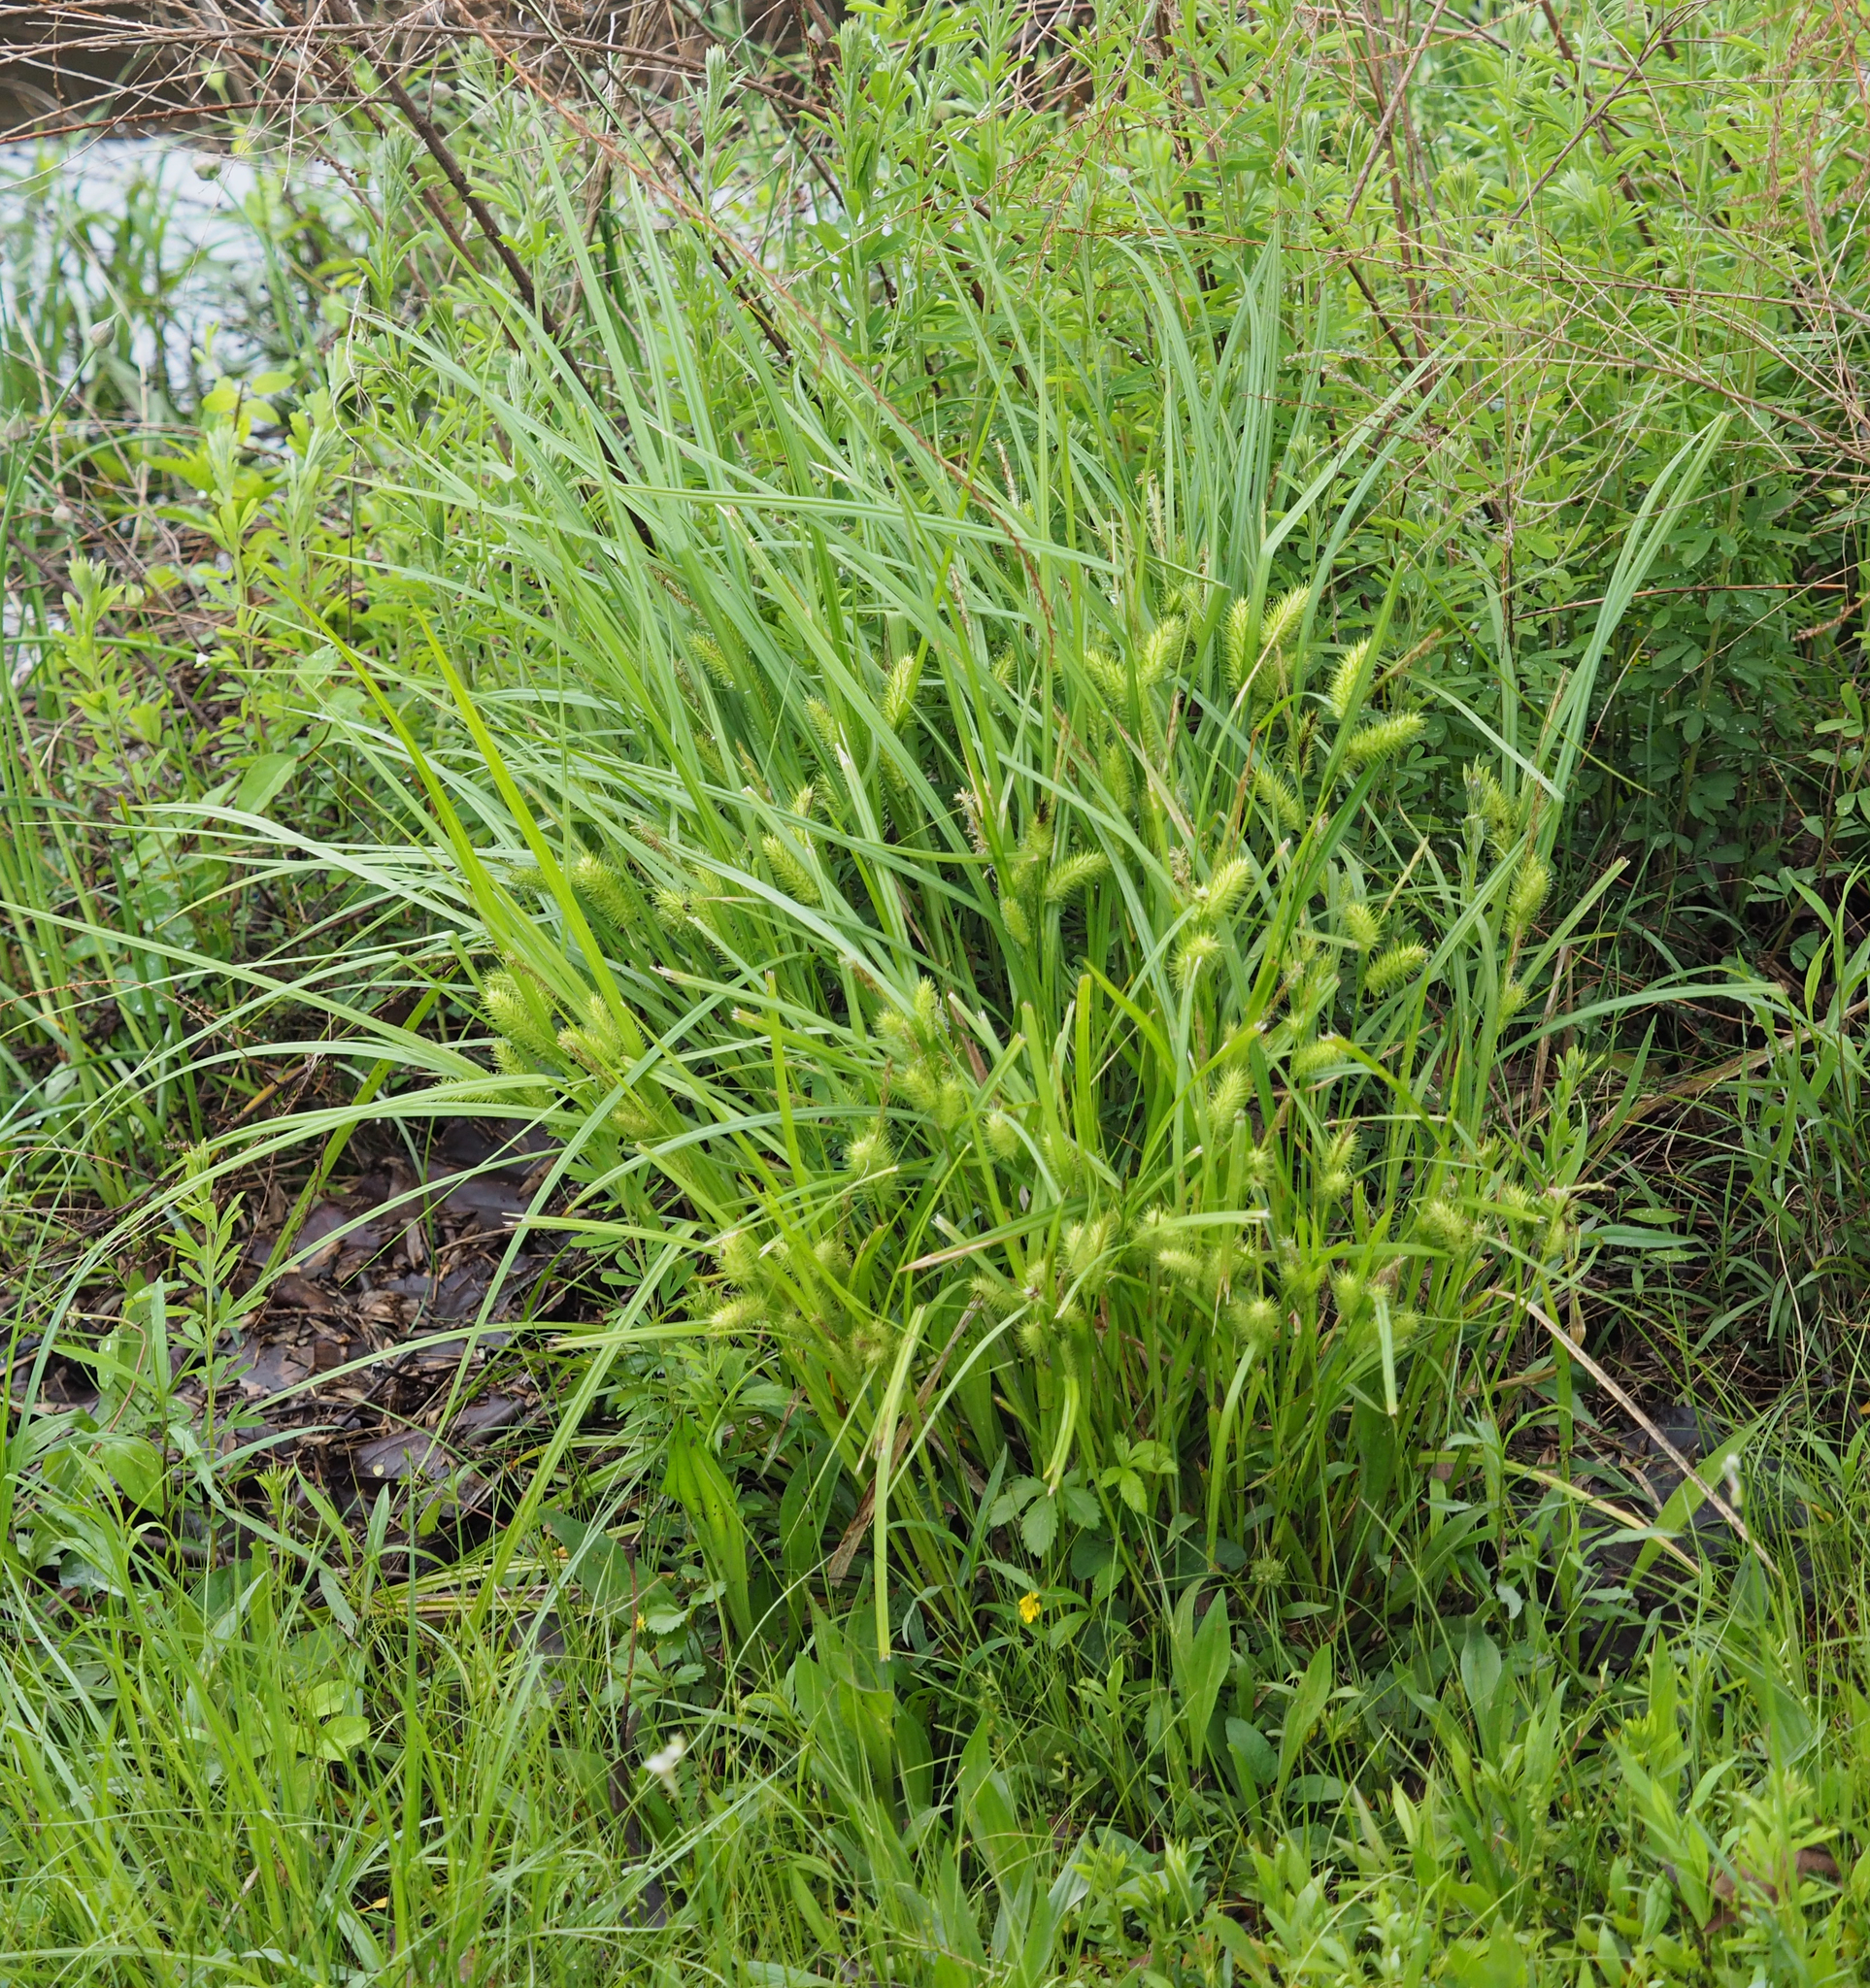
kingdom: Plantae
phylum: Tracheophyta
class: Liliopsida
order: Poales
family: Cyperaceae
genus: Carex
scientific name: Carex lurida
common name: Sallow sedge
